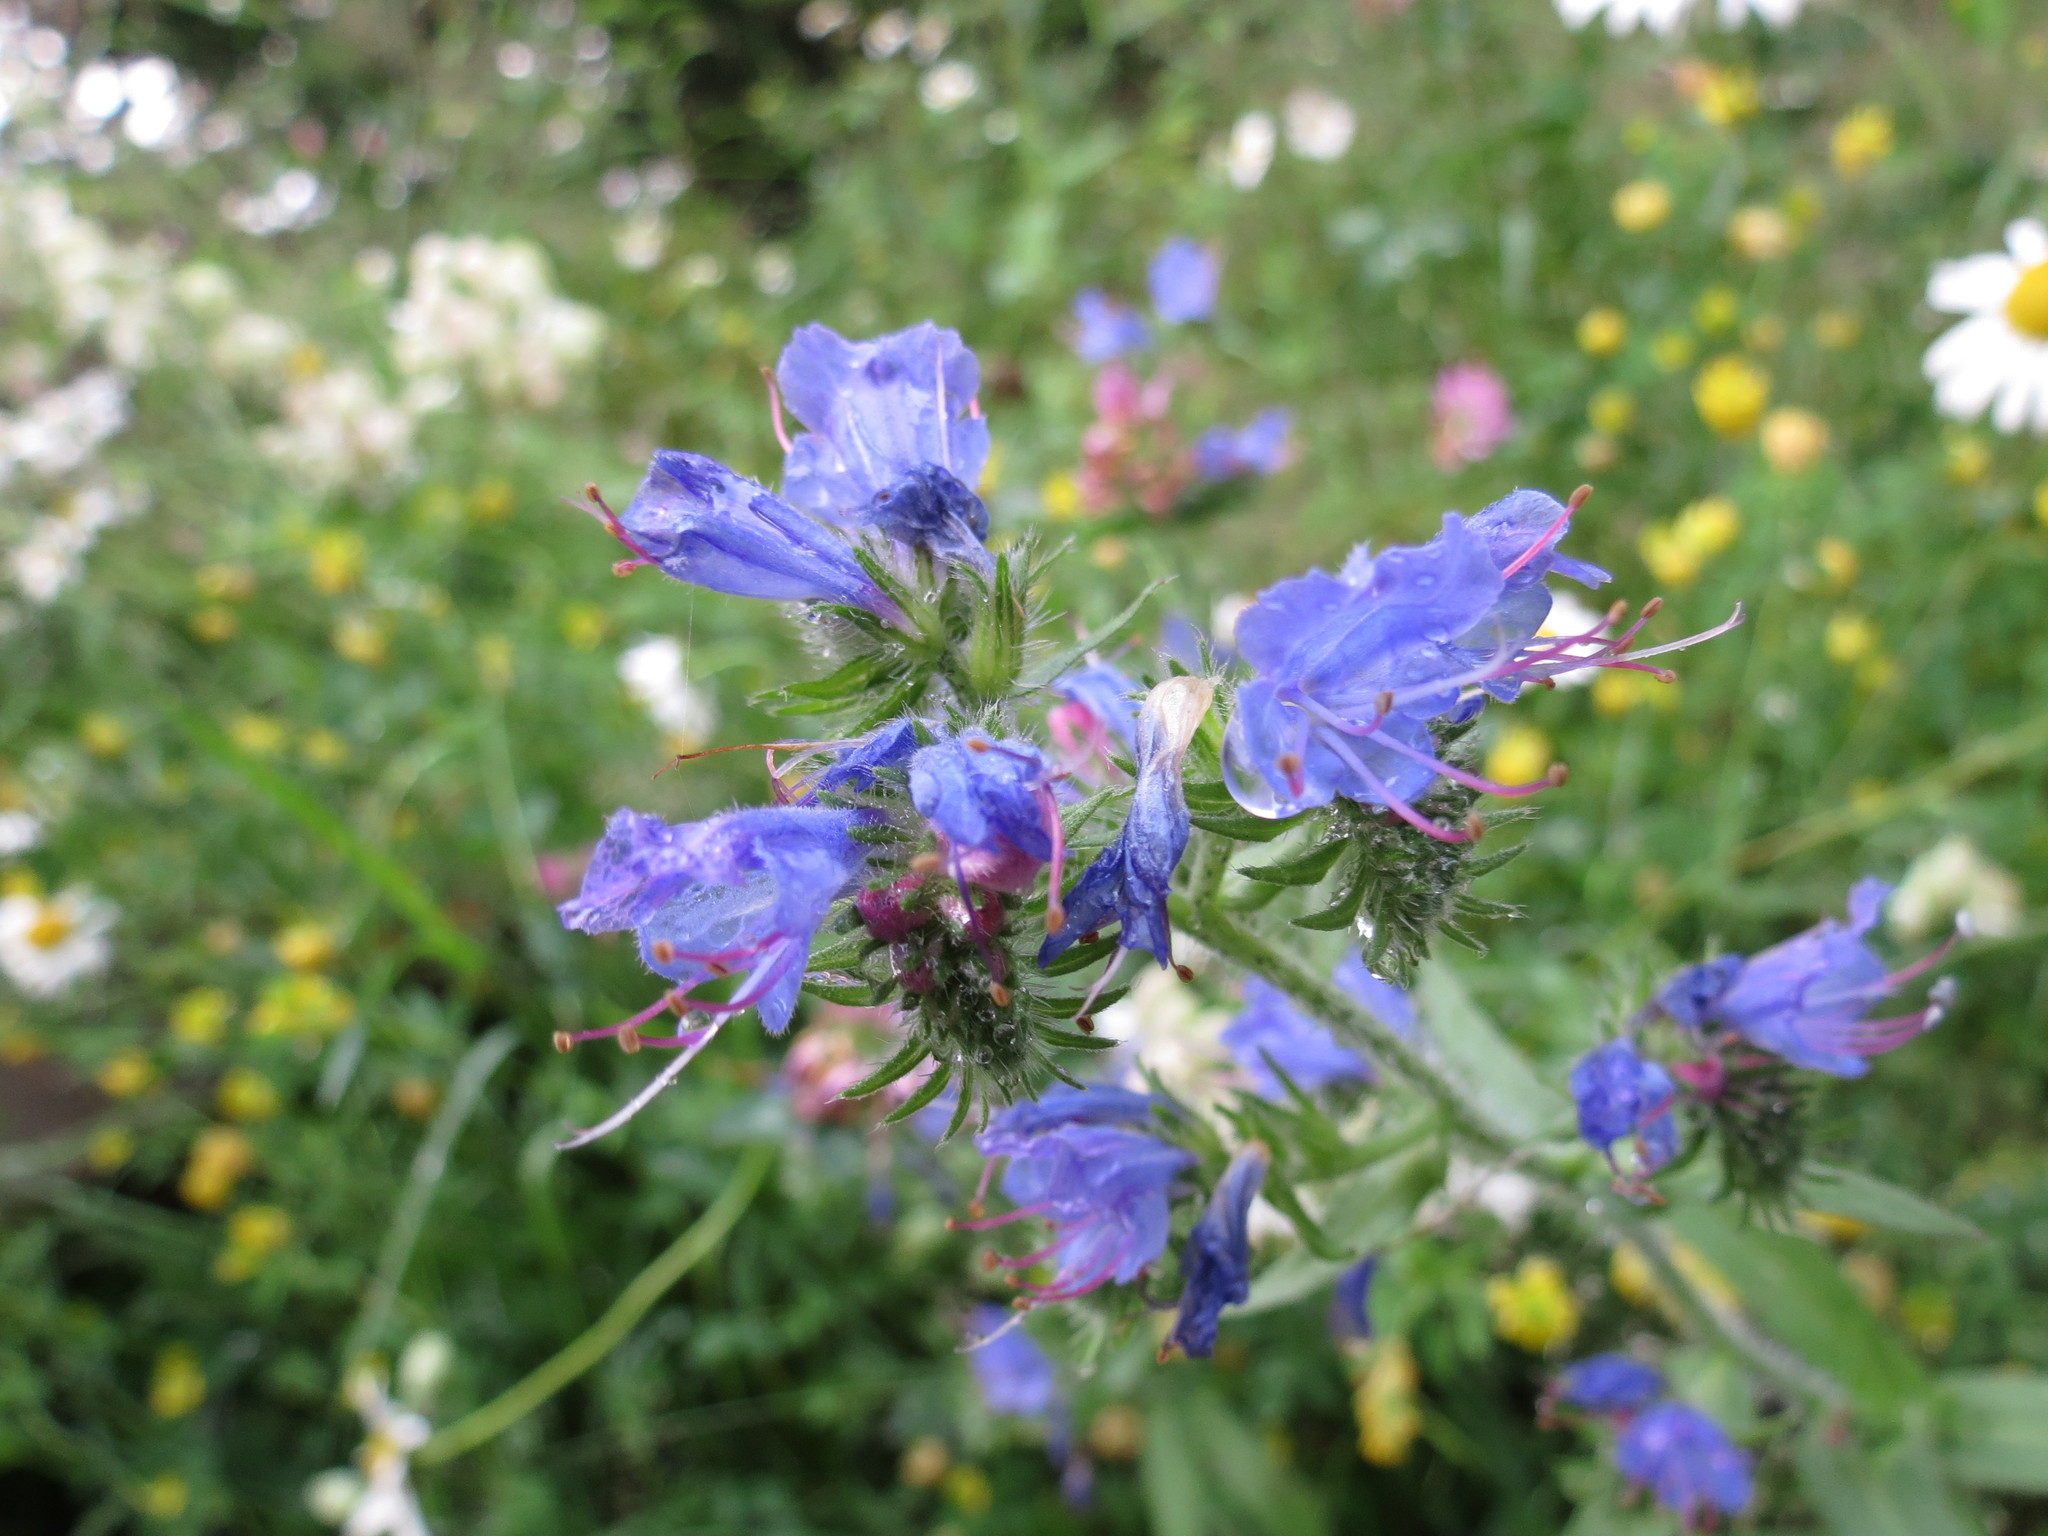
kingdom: Plantae
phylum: Tracheophyta
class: Magnoliopsida
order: Boraginales
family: Boraginaceae
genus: Echium
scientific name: Echium vulgare
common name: Common viper's bugloss
